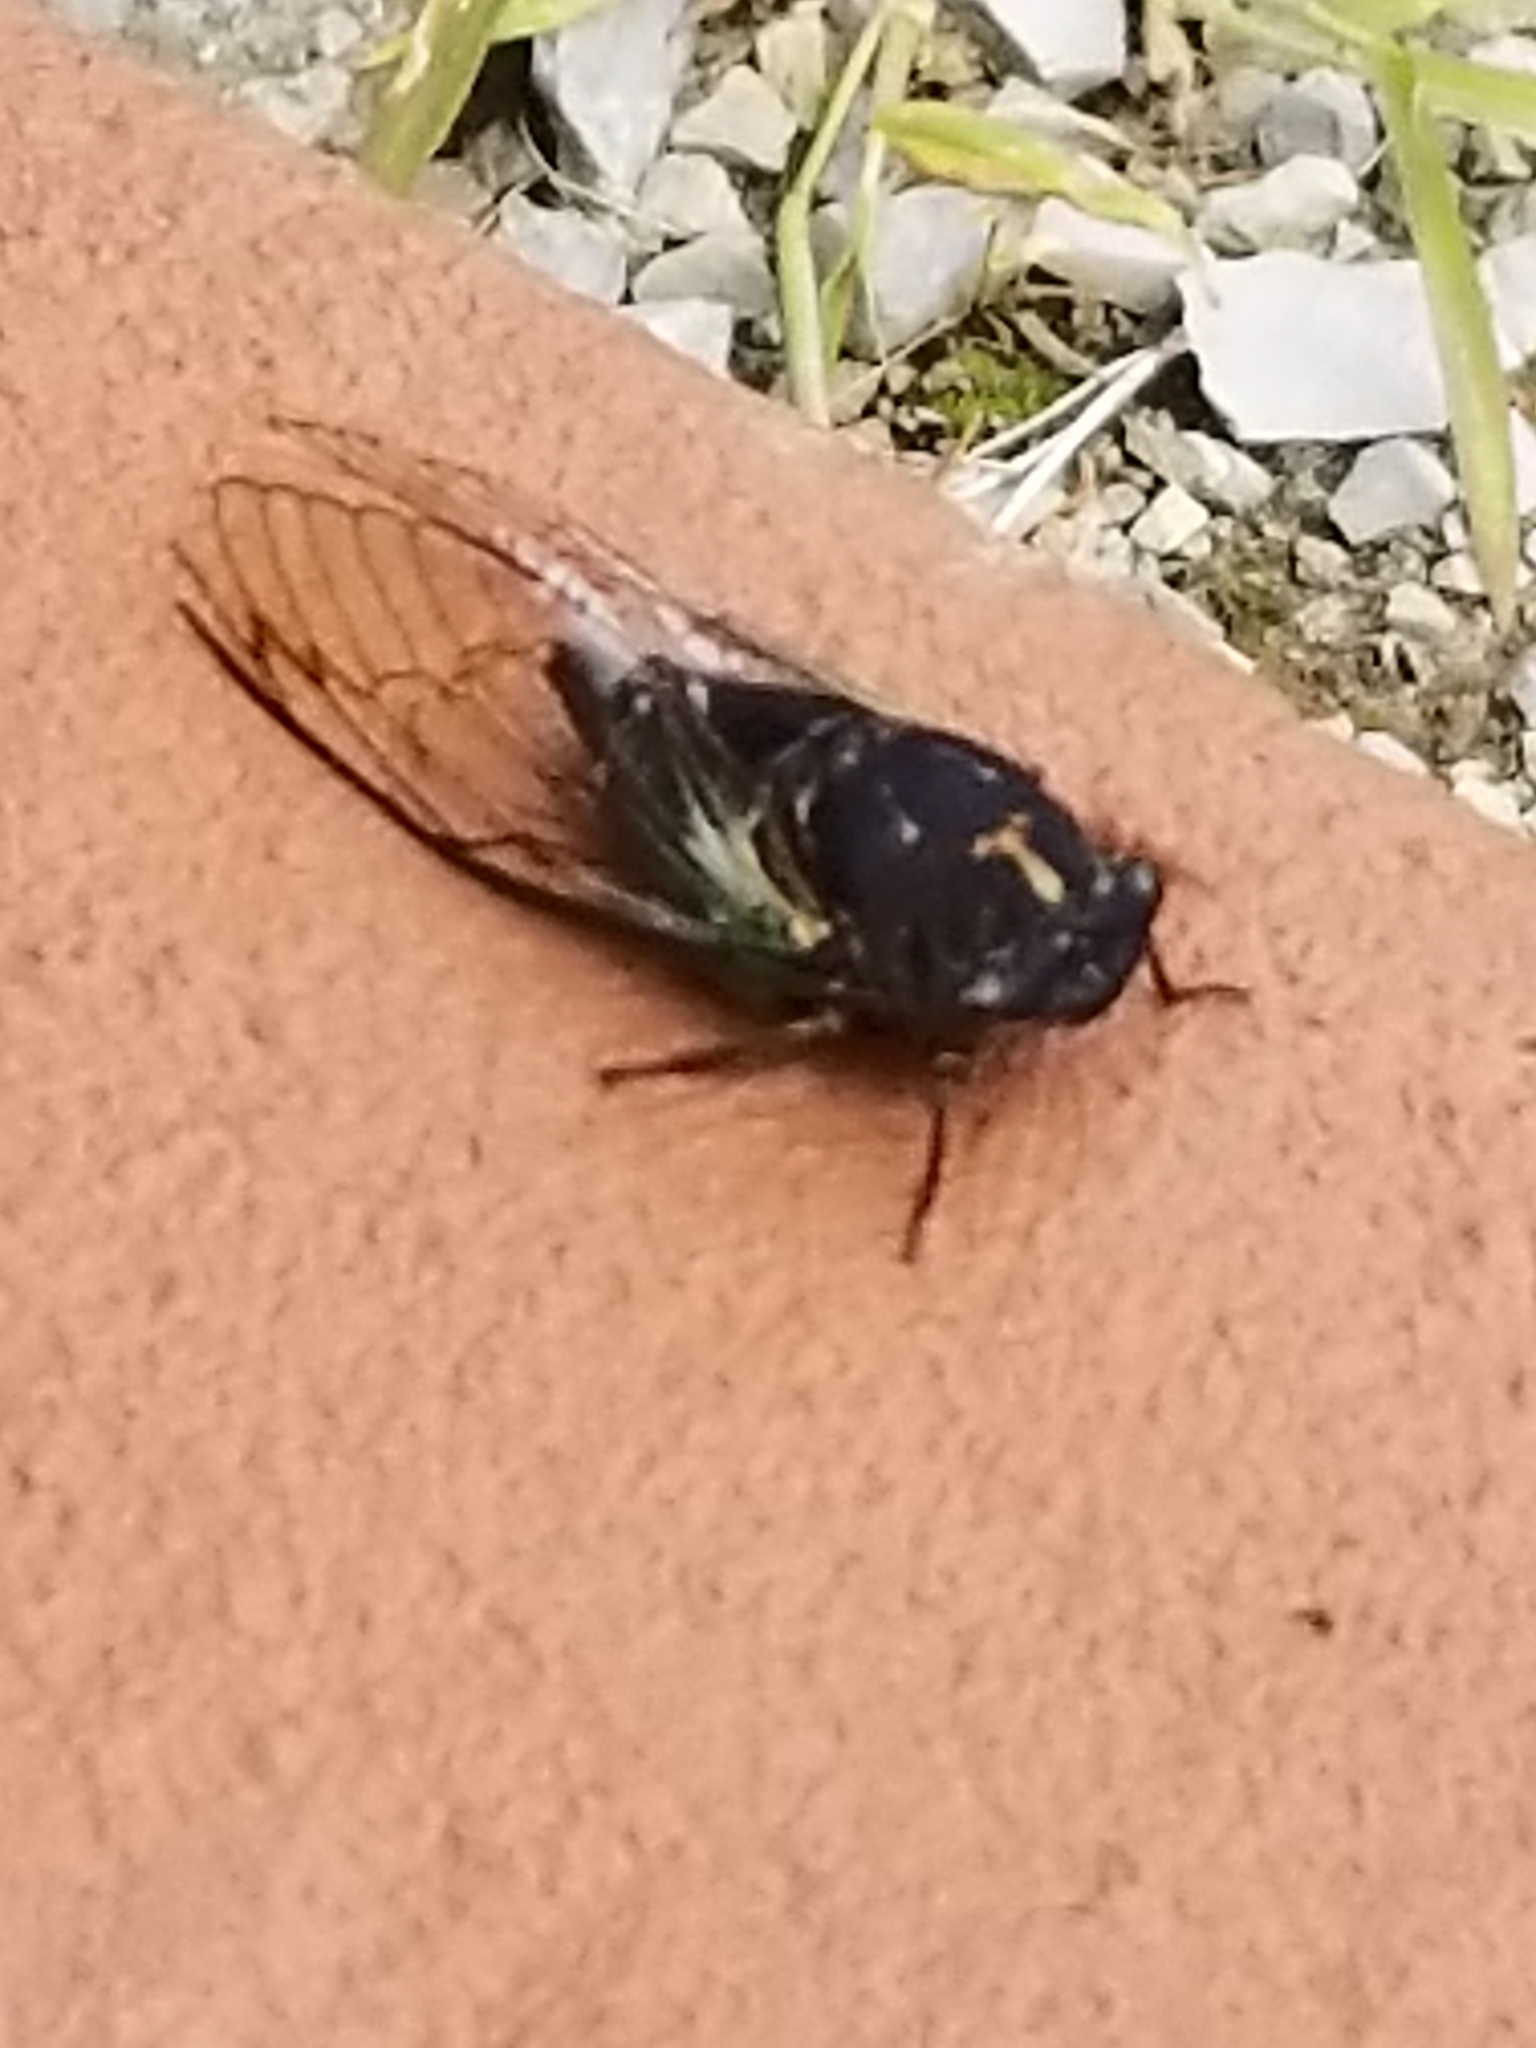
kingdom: Animalia
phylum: Arthropoda
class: Insecta
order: Hemiptera
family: Cicadidae
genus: Neotibicen
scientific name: Neotibicen lyricen
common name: Lyric cicada
